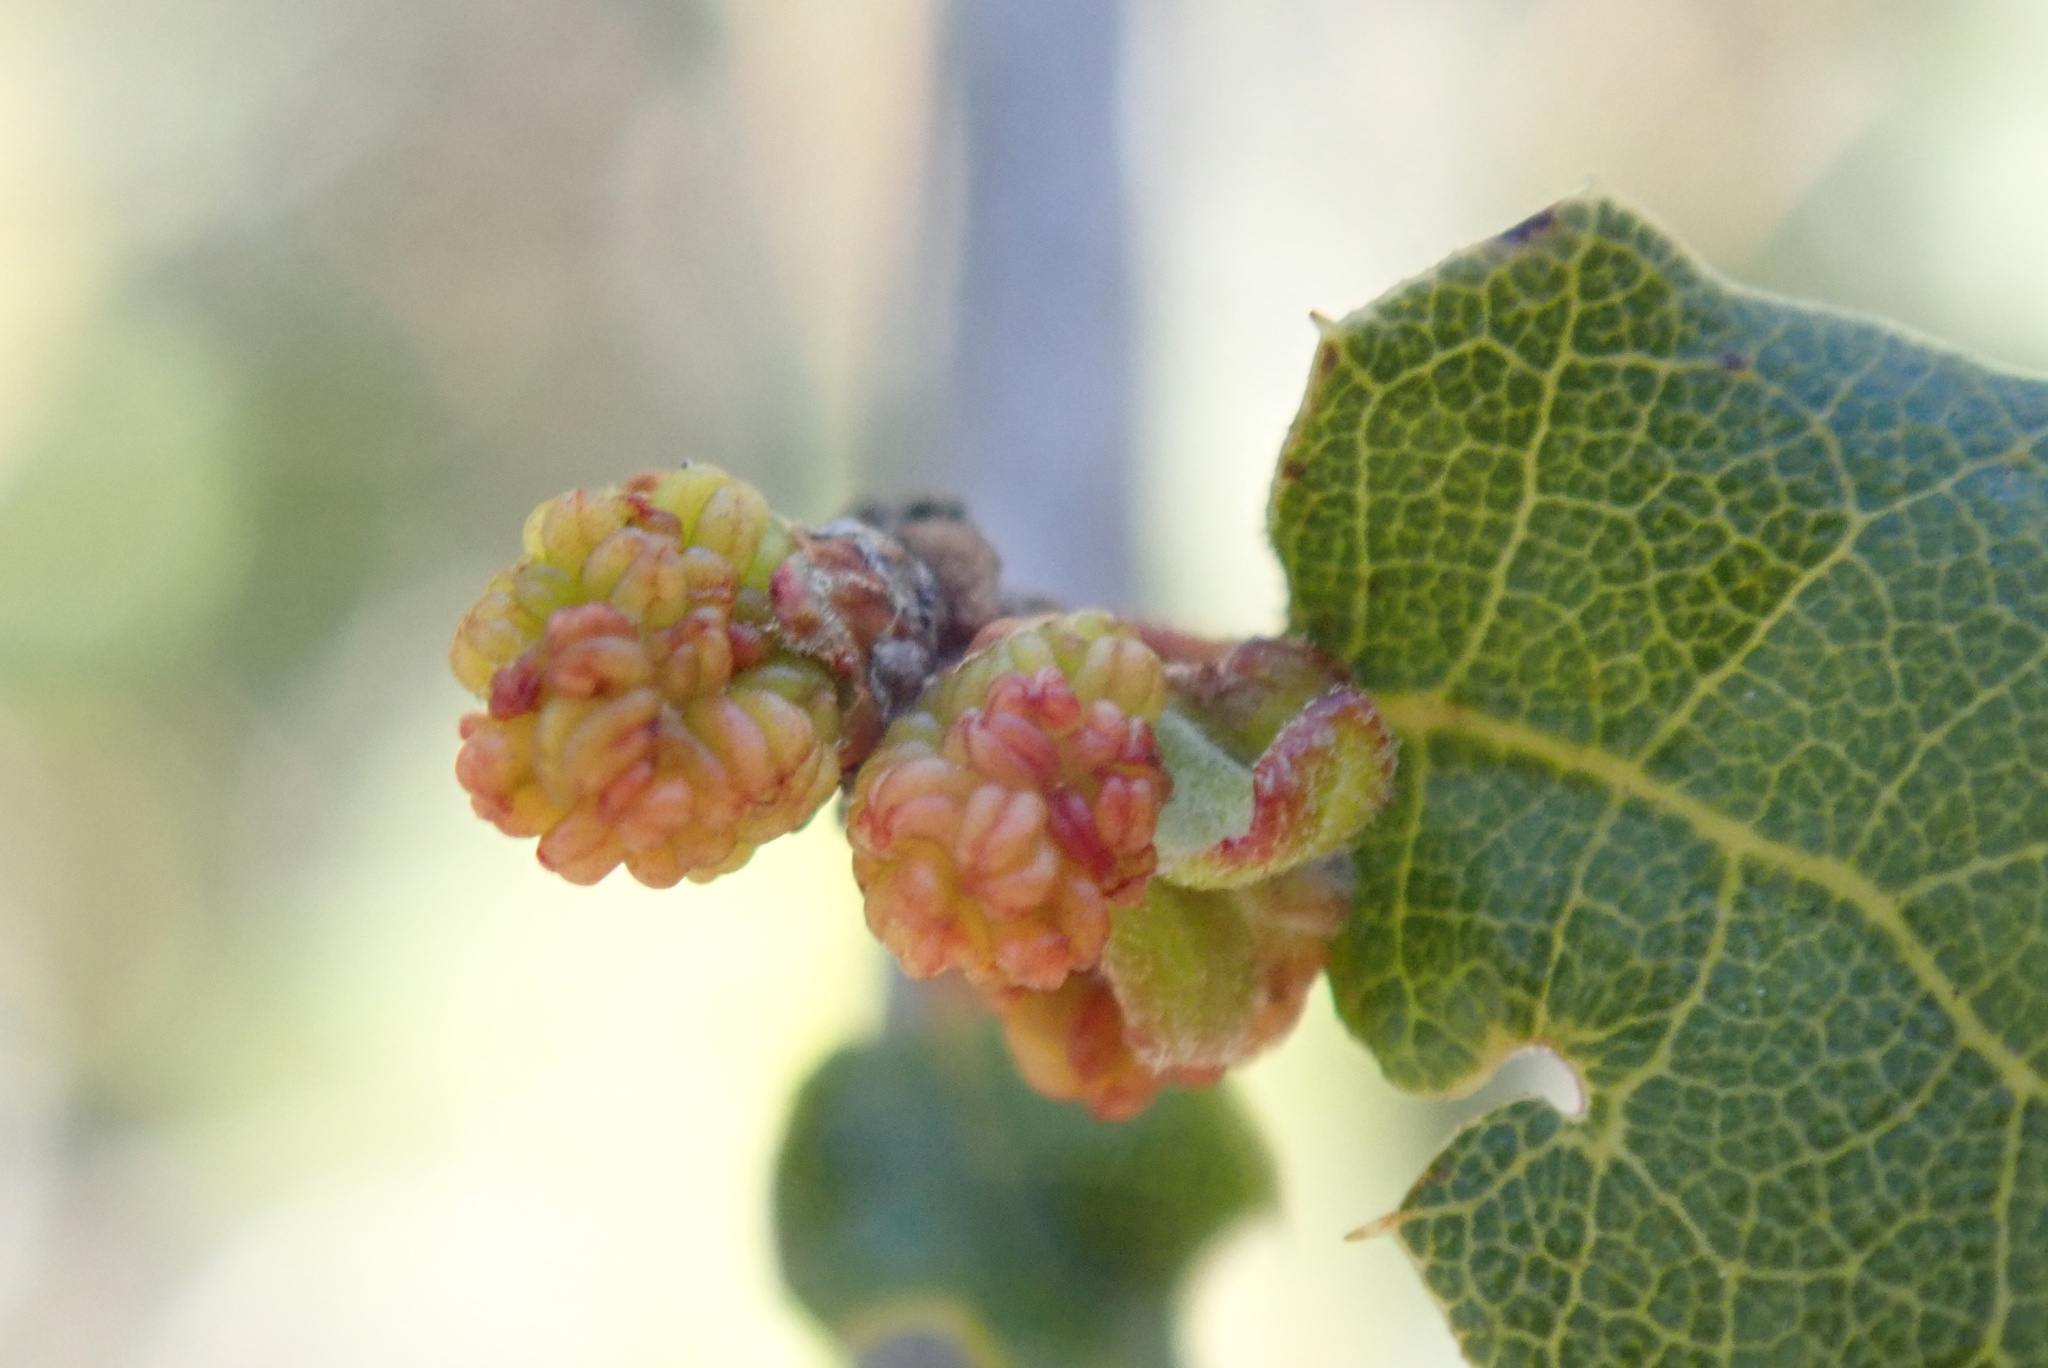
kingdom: Plantae
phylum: Tracheophyta
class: Magnoliopsida
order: Fagales
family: Fagaceae
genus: Quercus
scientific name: Quercus dumosa
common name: Coastal sage scrub oak
